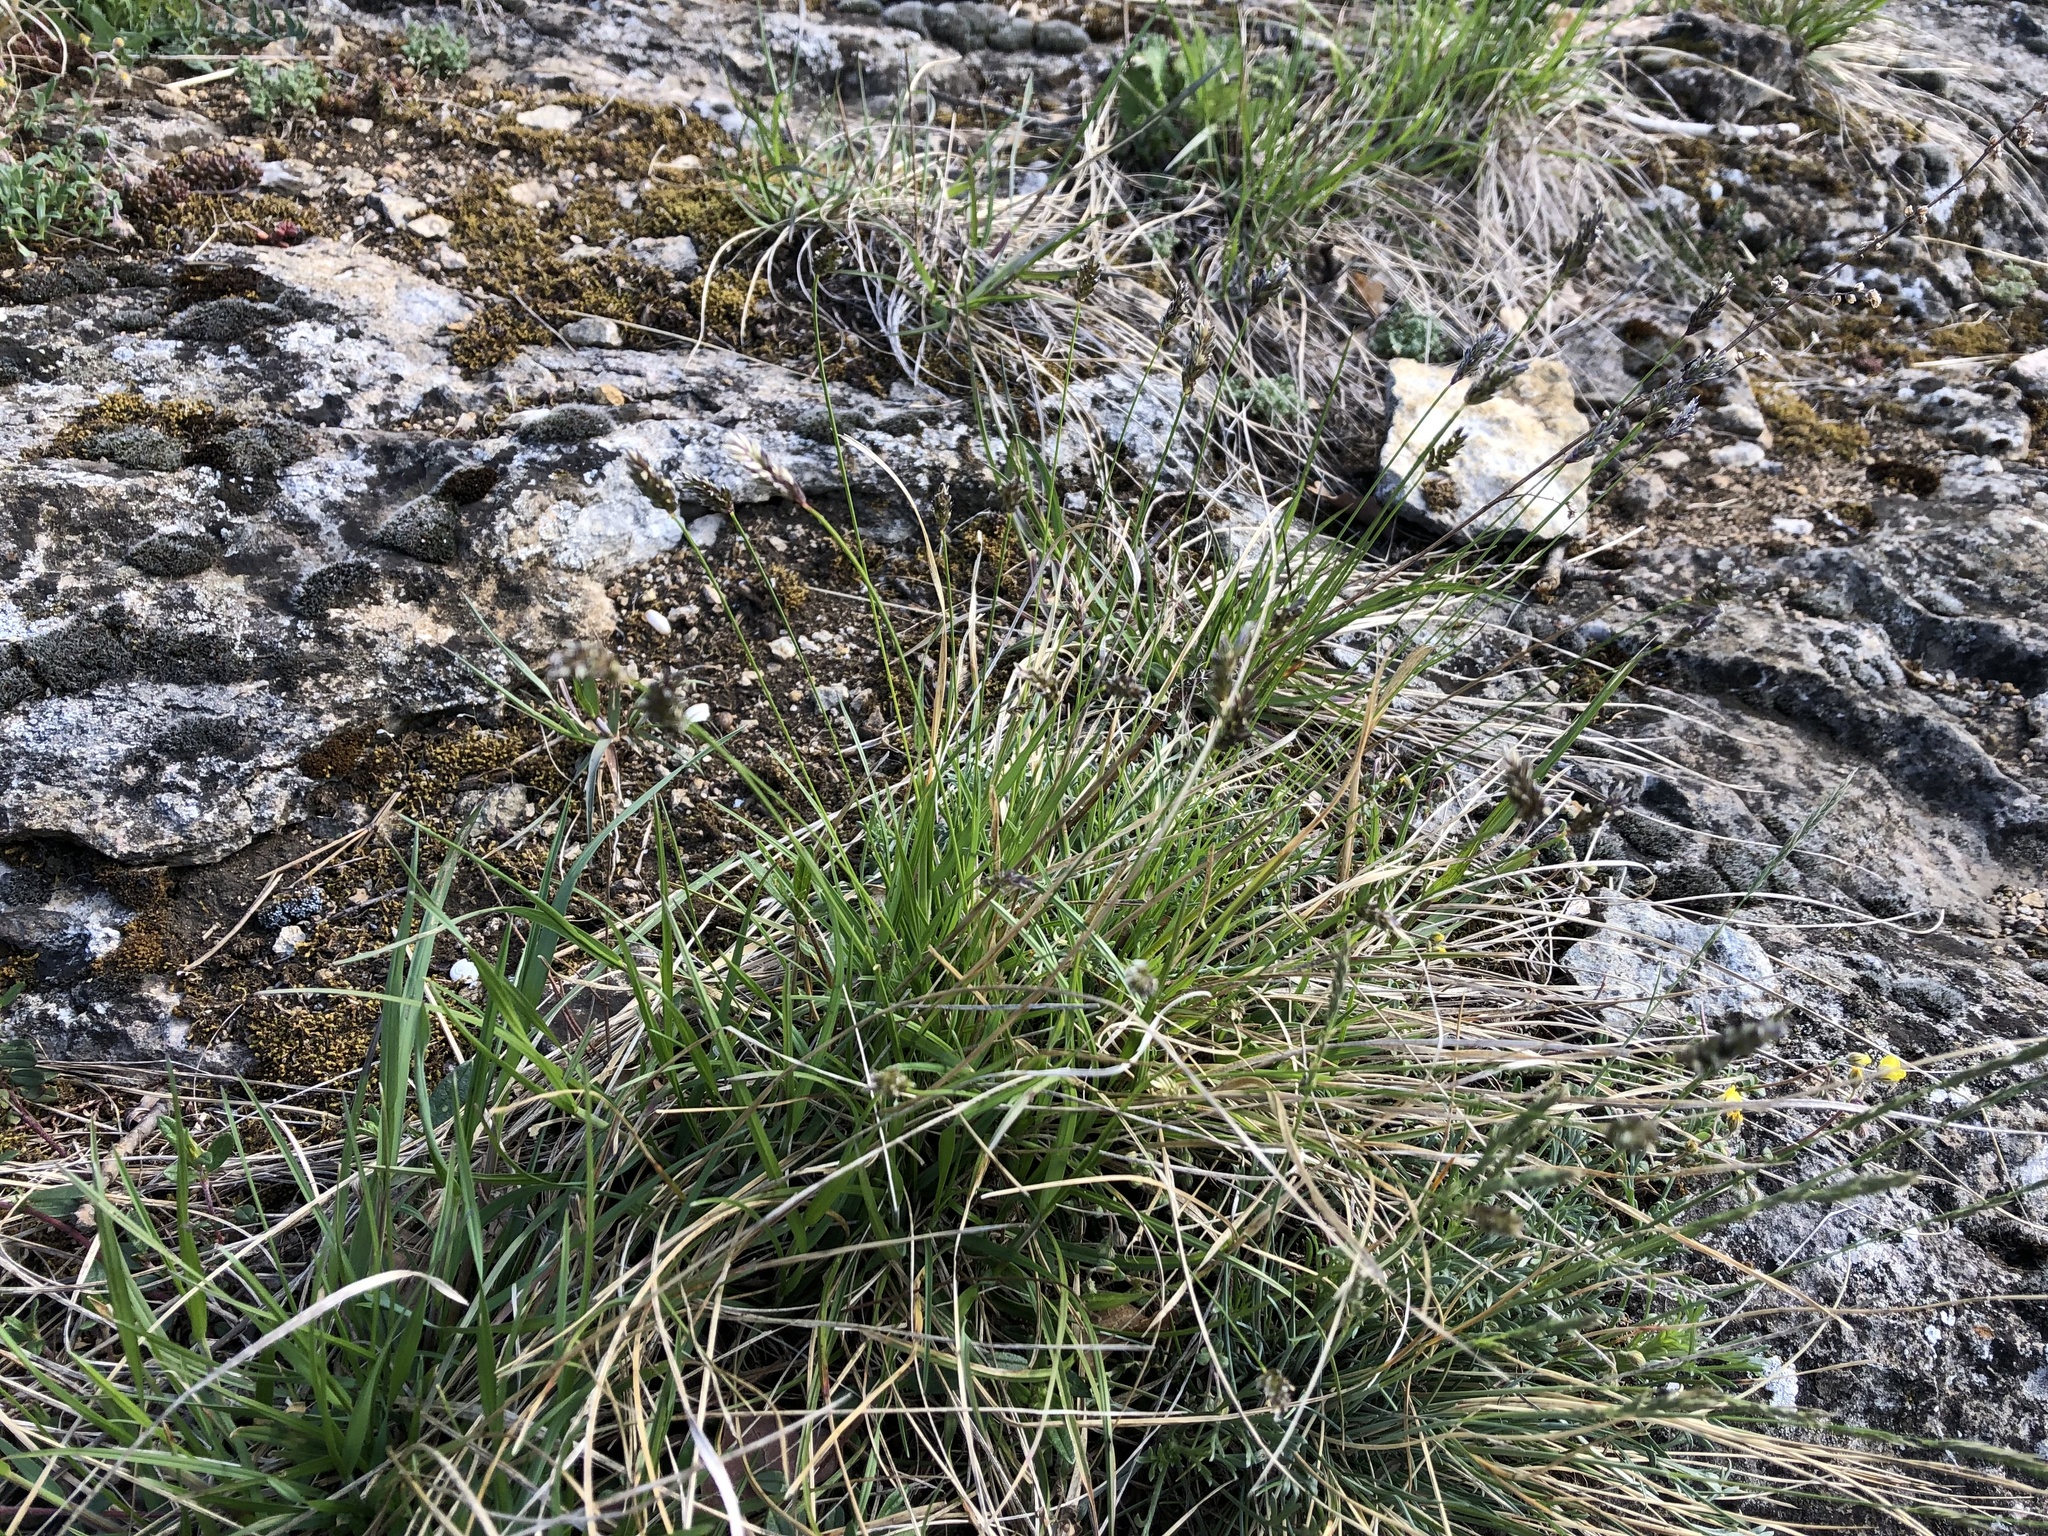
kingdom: Plantae
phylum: Tracheophyta
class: Liliopsida
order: Poales
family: Poaceae
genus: Sesleria
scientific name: Sesleria caerulea
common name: Blue moor-grass
